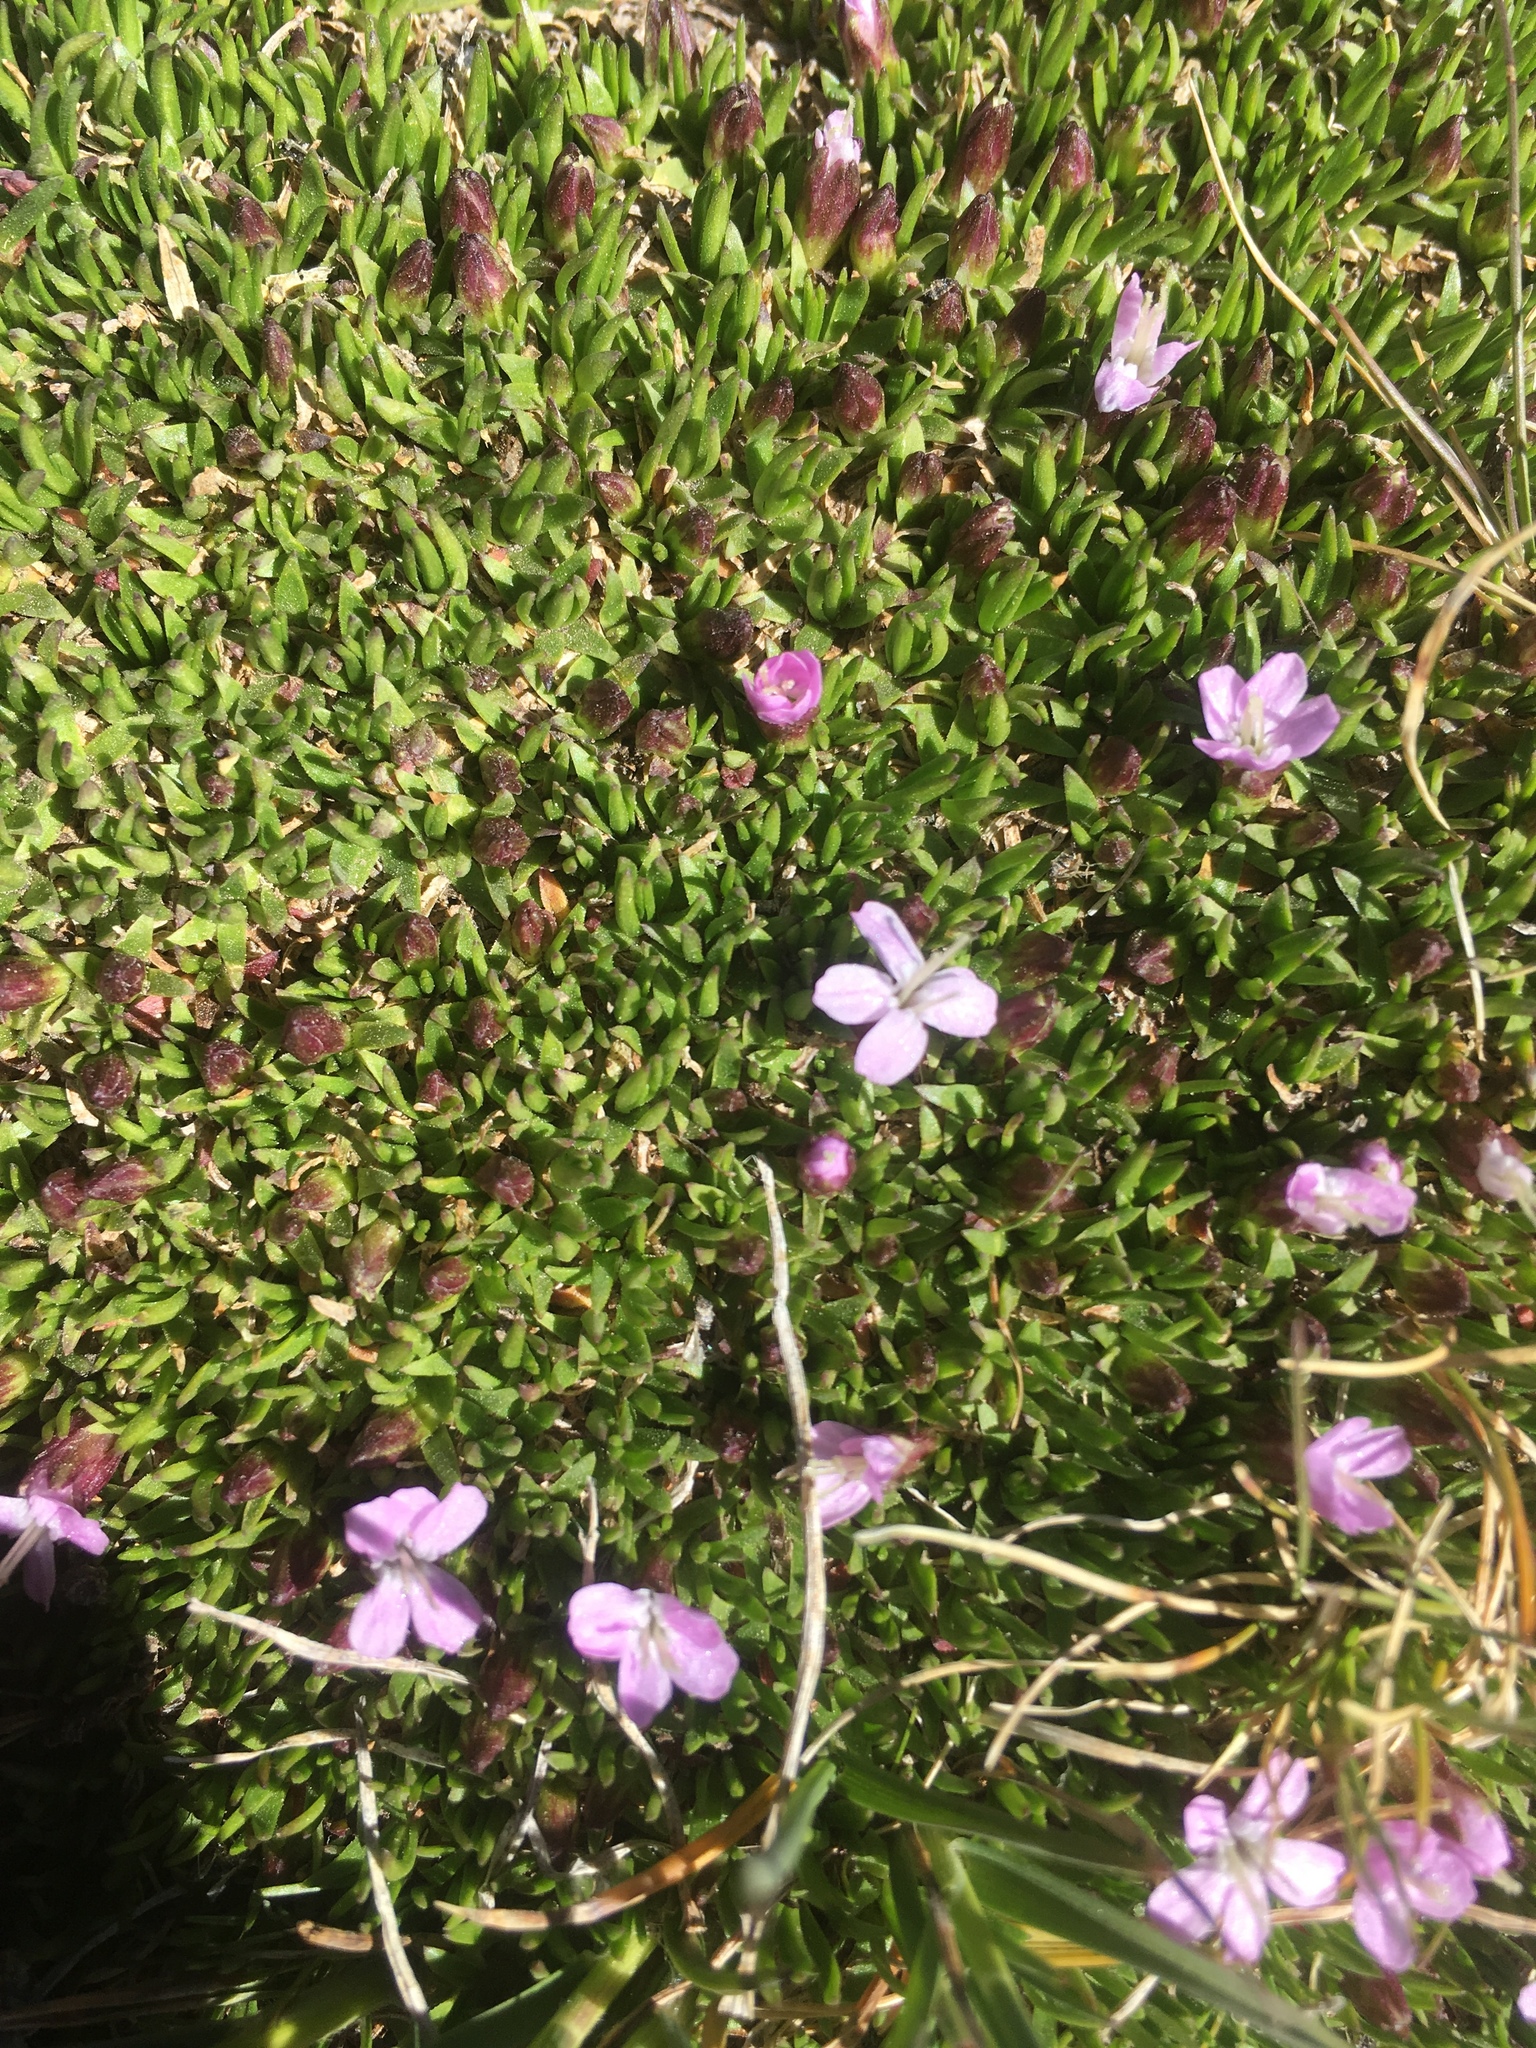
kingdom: Plantae
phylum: Tracheophyta
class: Magnoliopsida
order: Caryophyllales
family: Caryophyllaceae
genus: Silene
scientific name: Silene acaulis
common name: Moss campion
